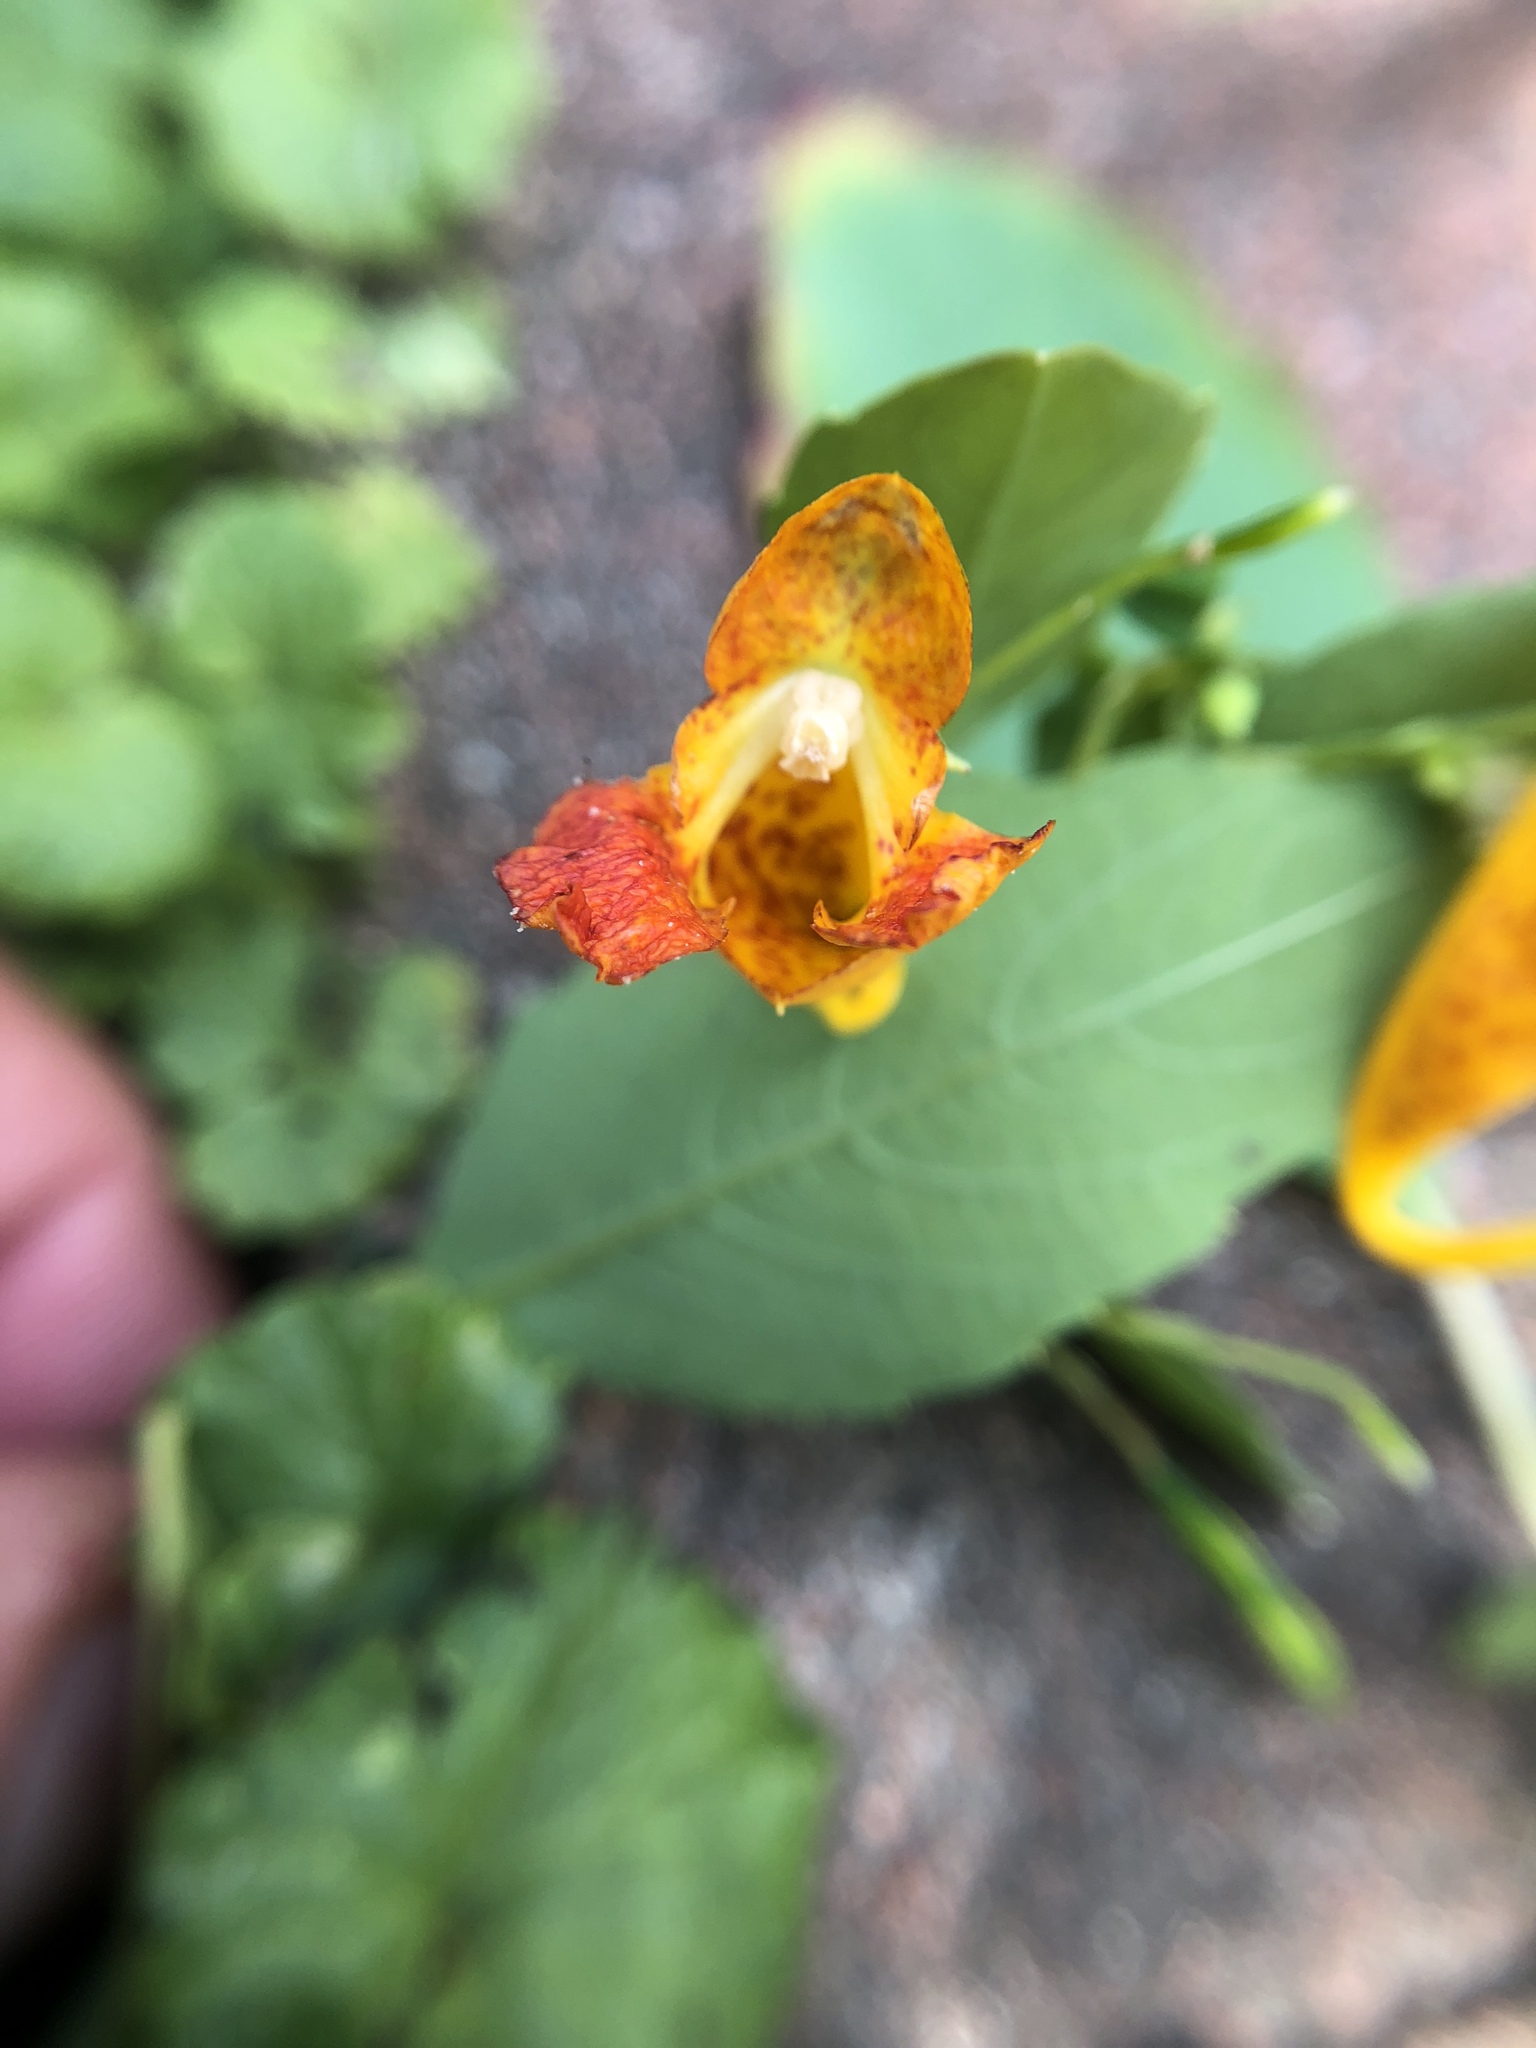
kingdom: Plantae
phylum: Tracheophyta
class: Magnoliopsida
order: Ericales
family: Balsaminaceae
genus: Impatiens
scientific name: Impatiens capensis
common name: Orange balsam
